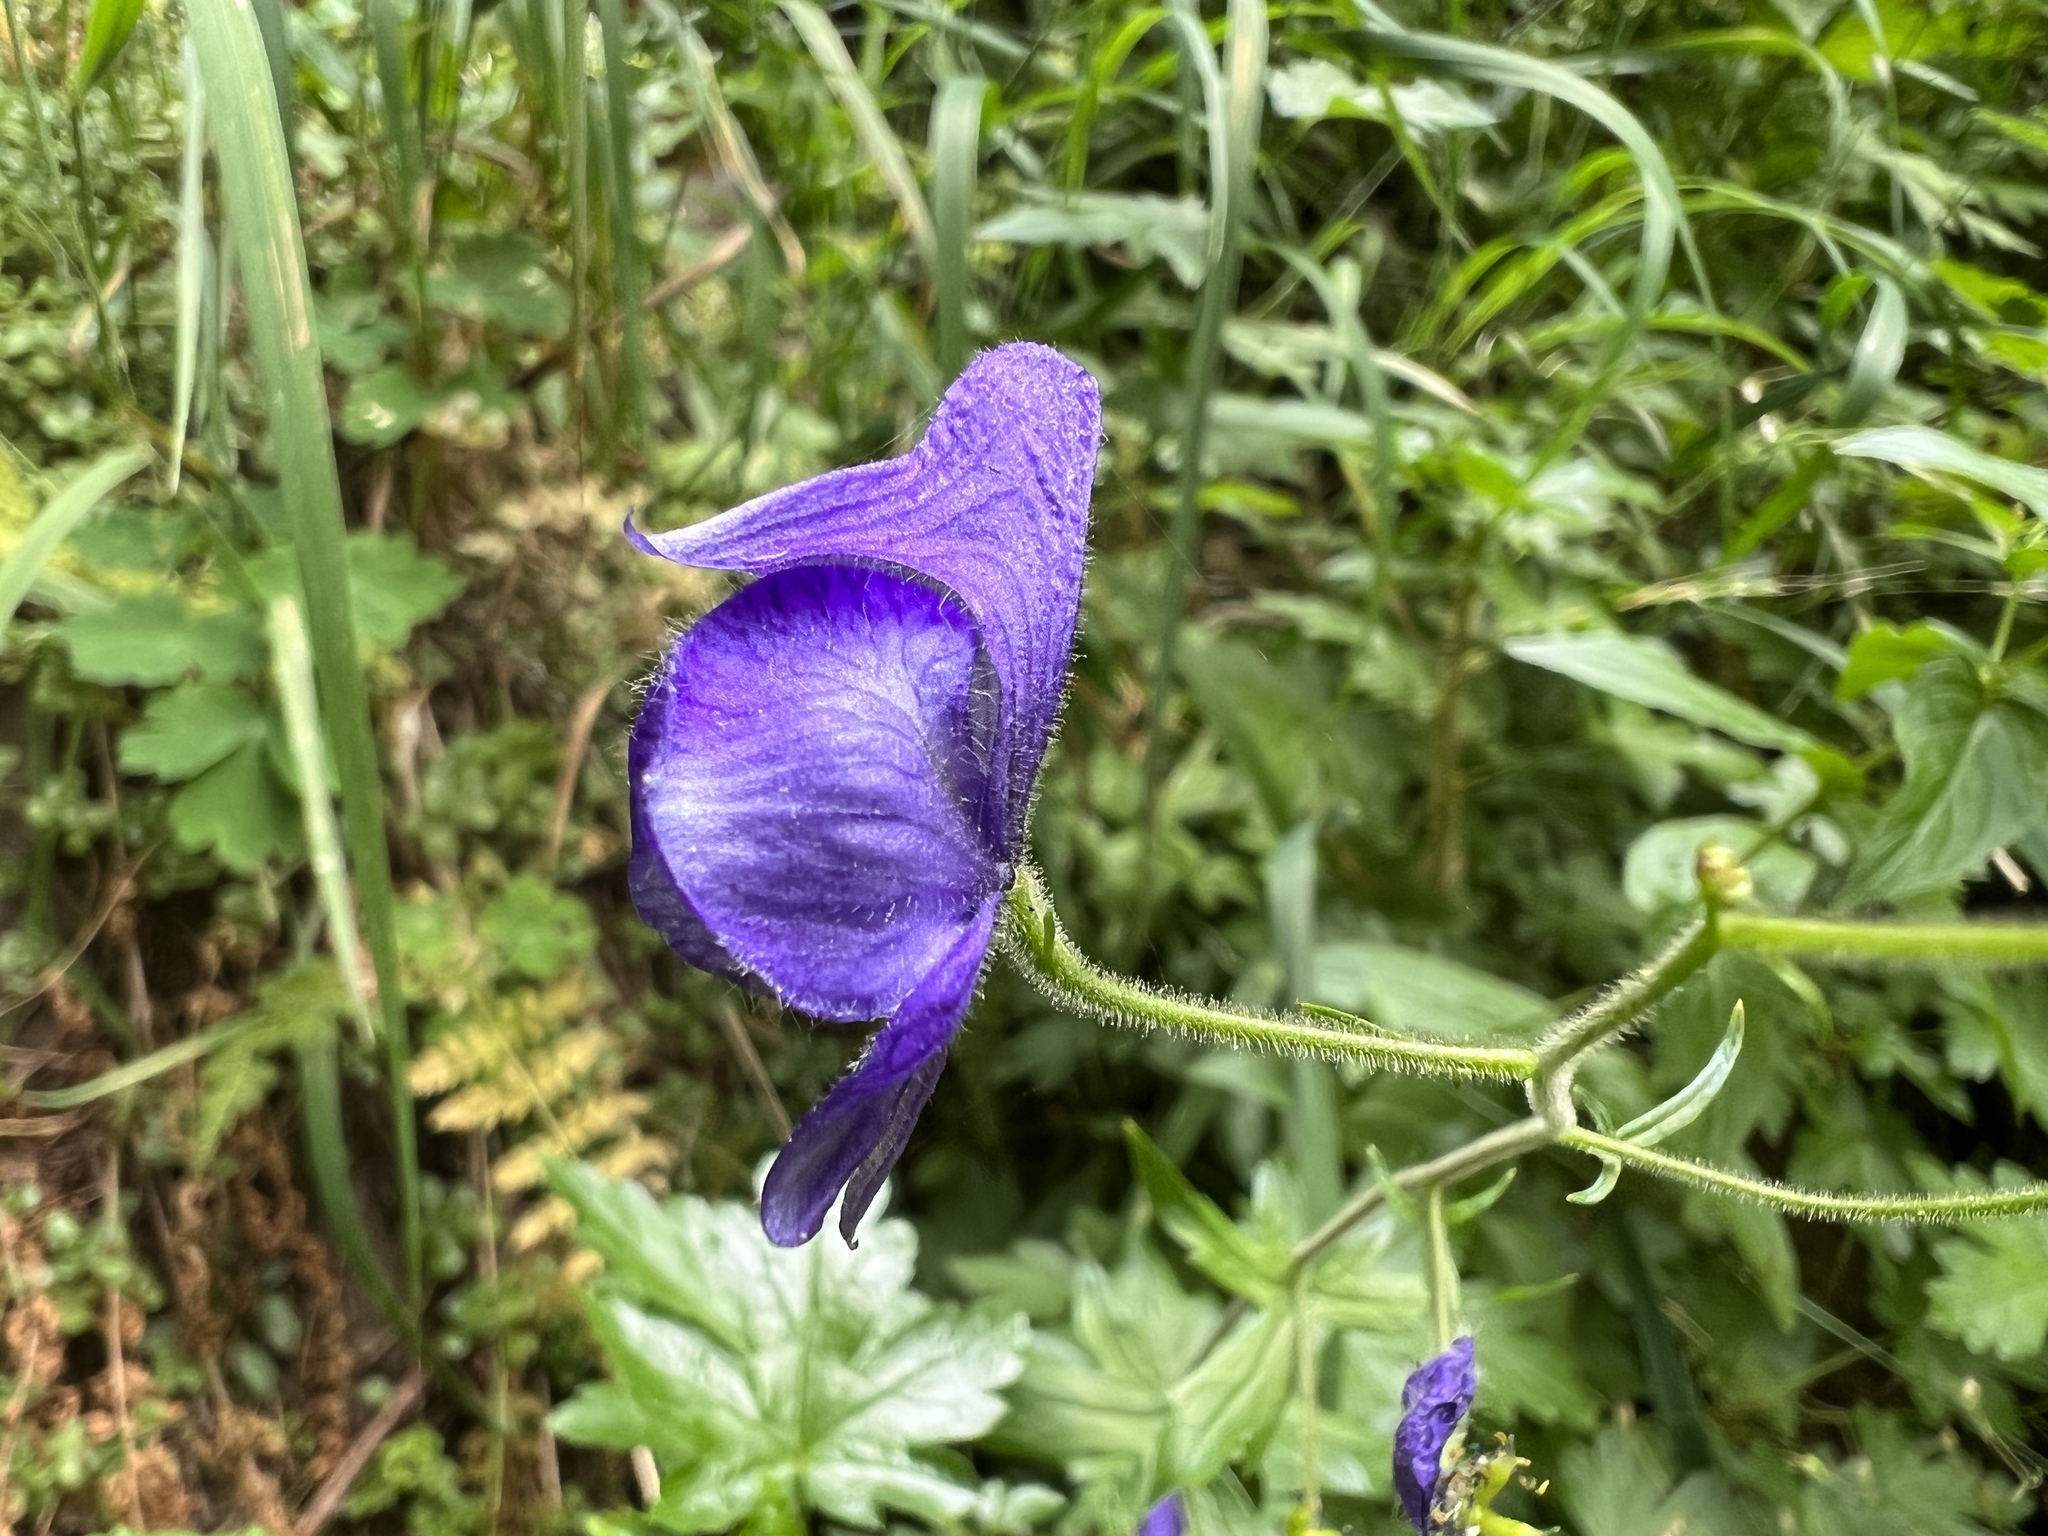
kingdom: Plantae
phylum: Tracheophyta
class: Magnoliopsida
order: Ranunculales
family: Ranunculaceae
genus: Aconitum
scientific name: Aconitum columbianum
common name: Columbia aconite
